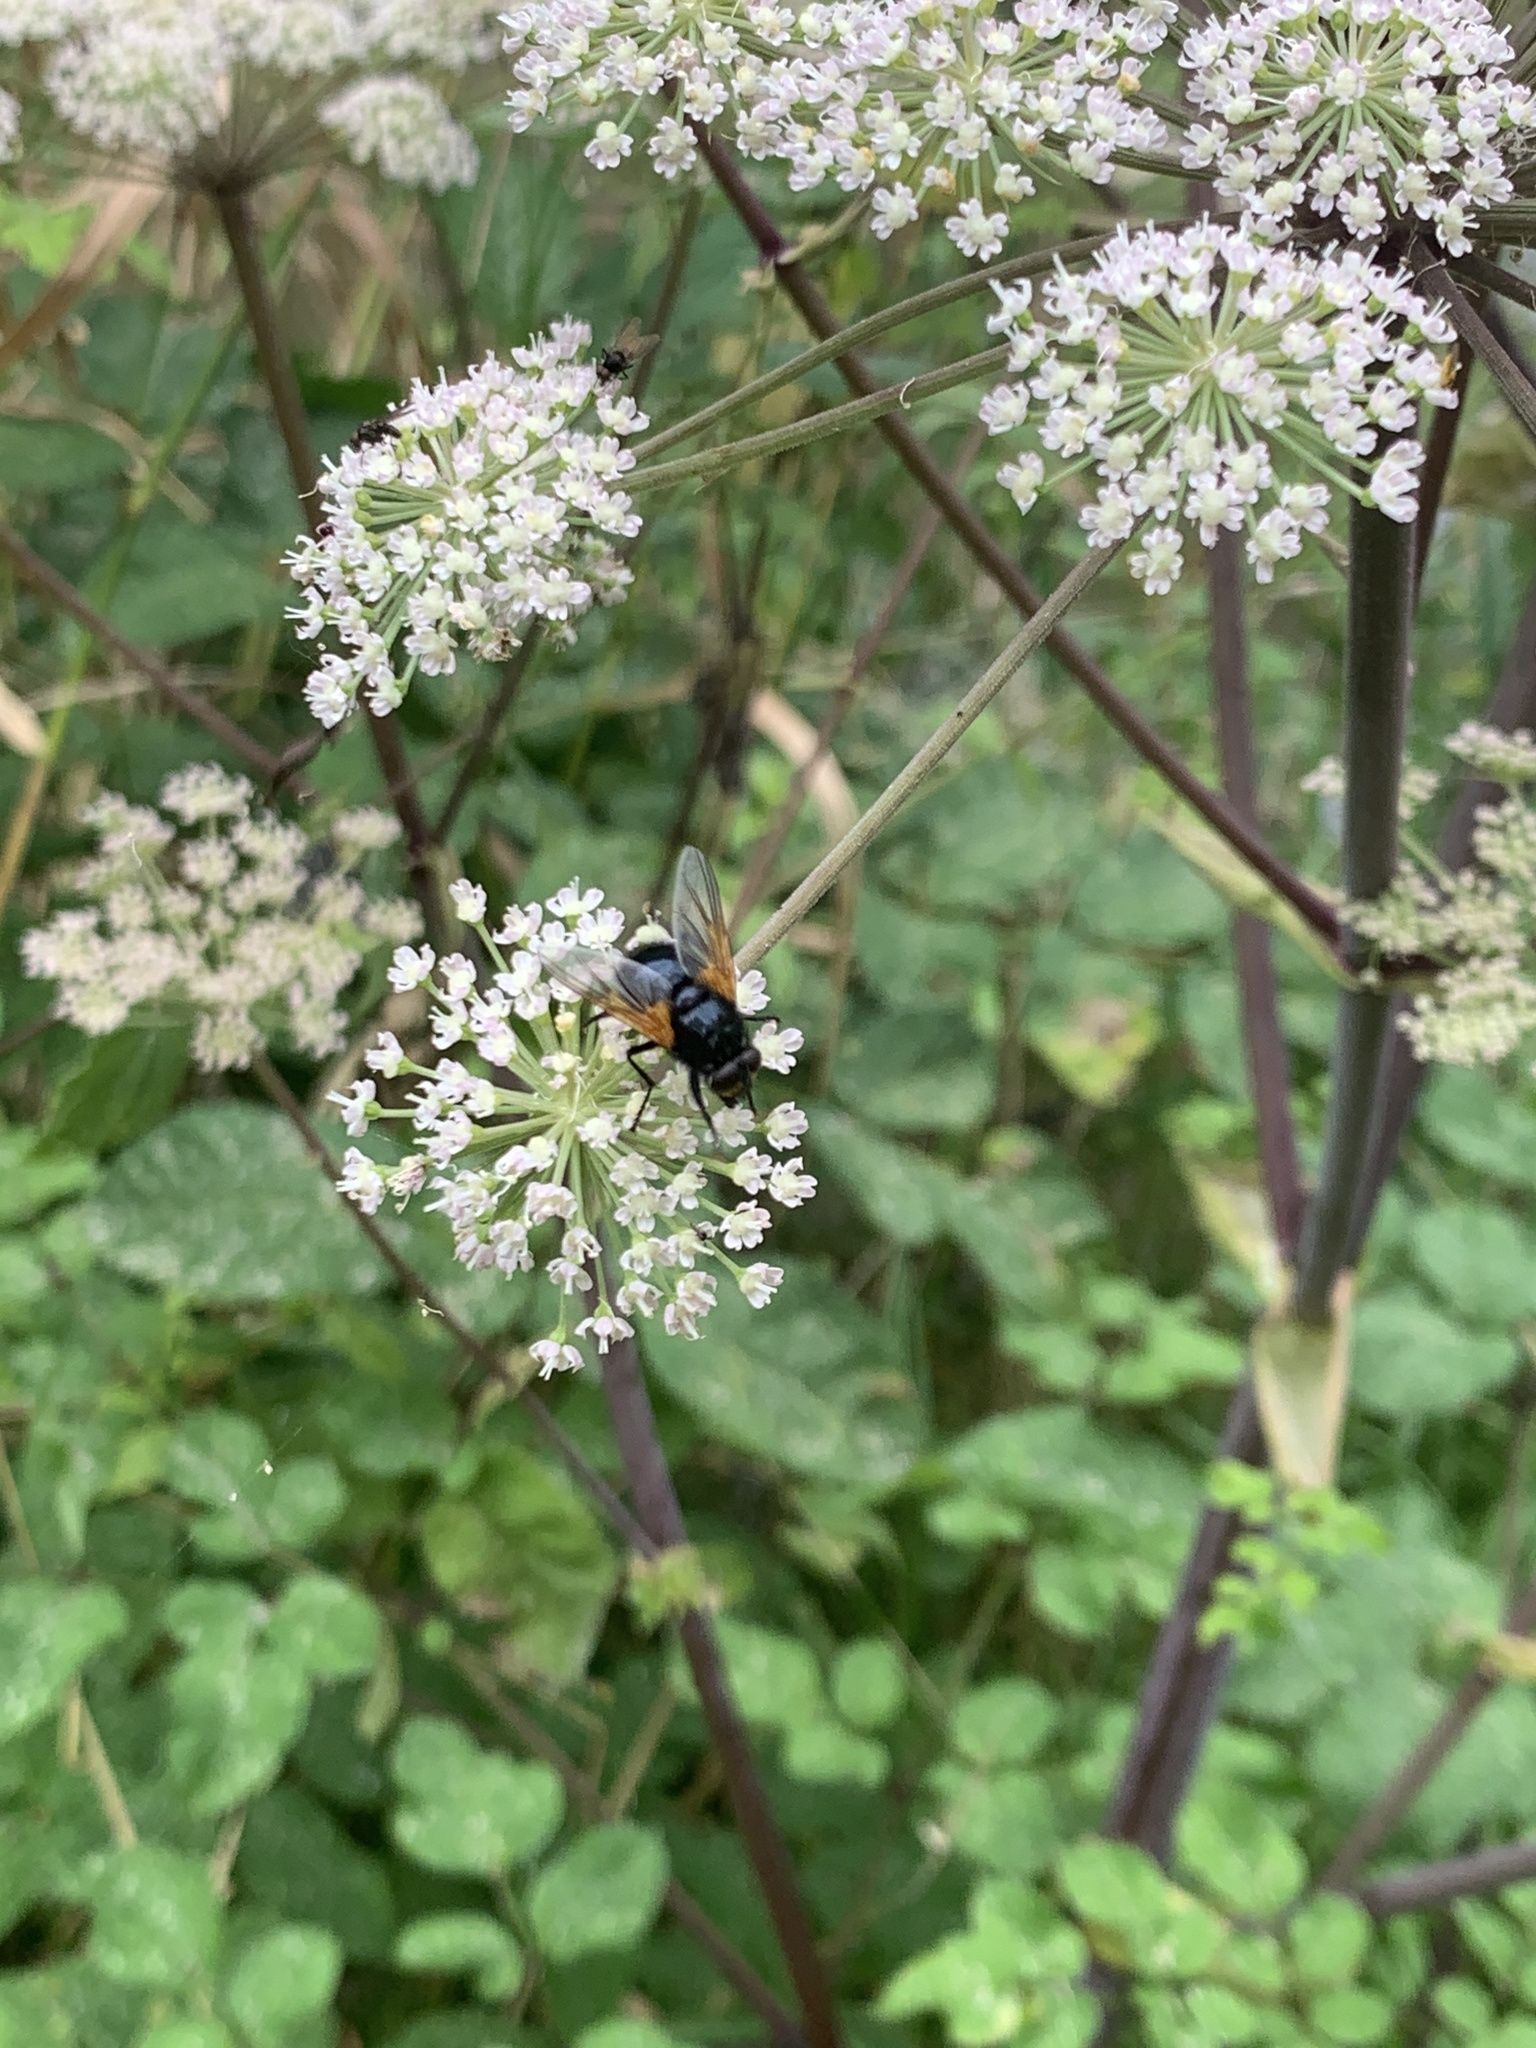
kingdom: Animalia
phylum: Arthropoda
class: Insecta
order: Diptera
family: Muscidae
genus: Mesembrina
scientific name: Mesembrina meridiana
